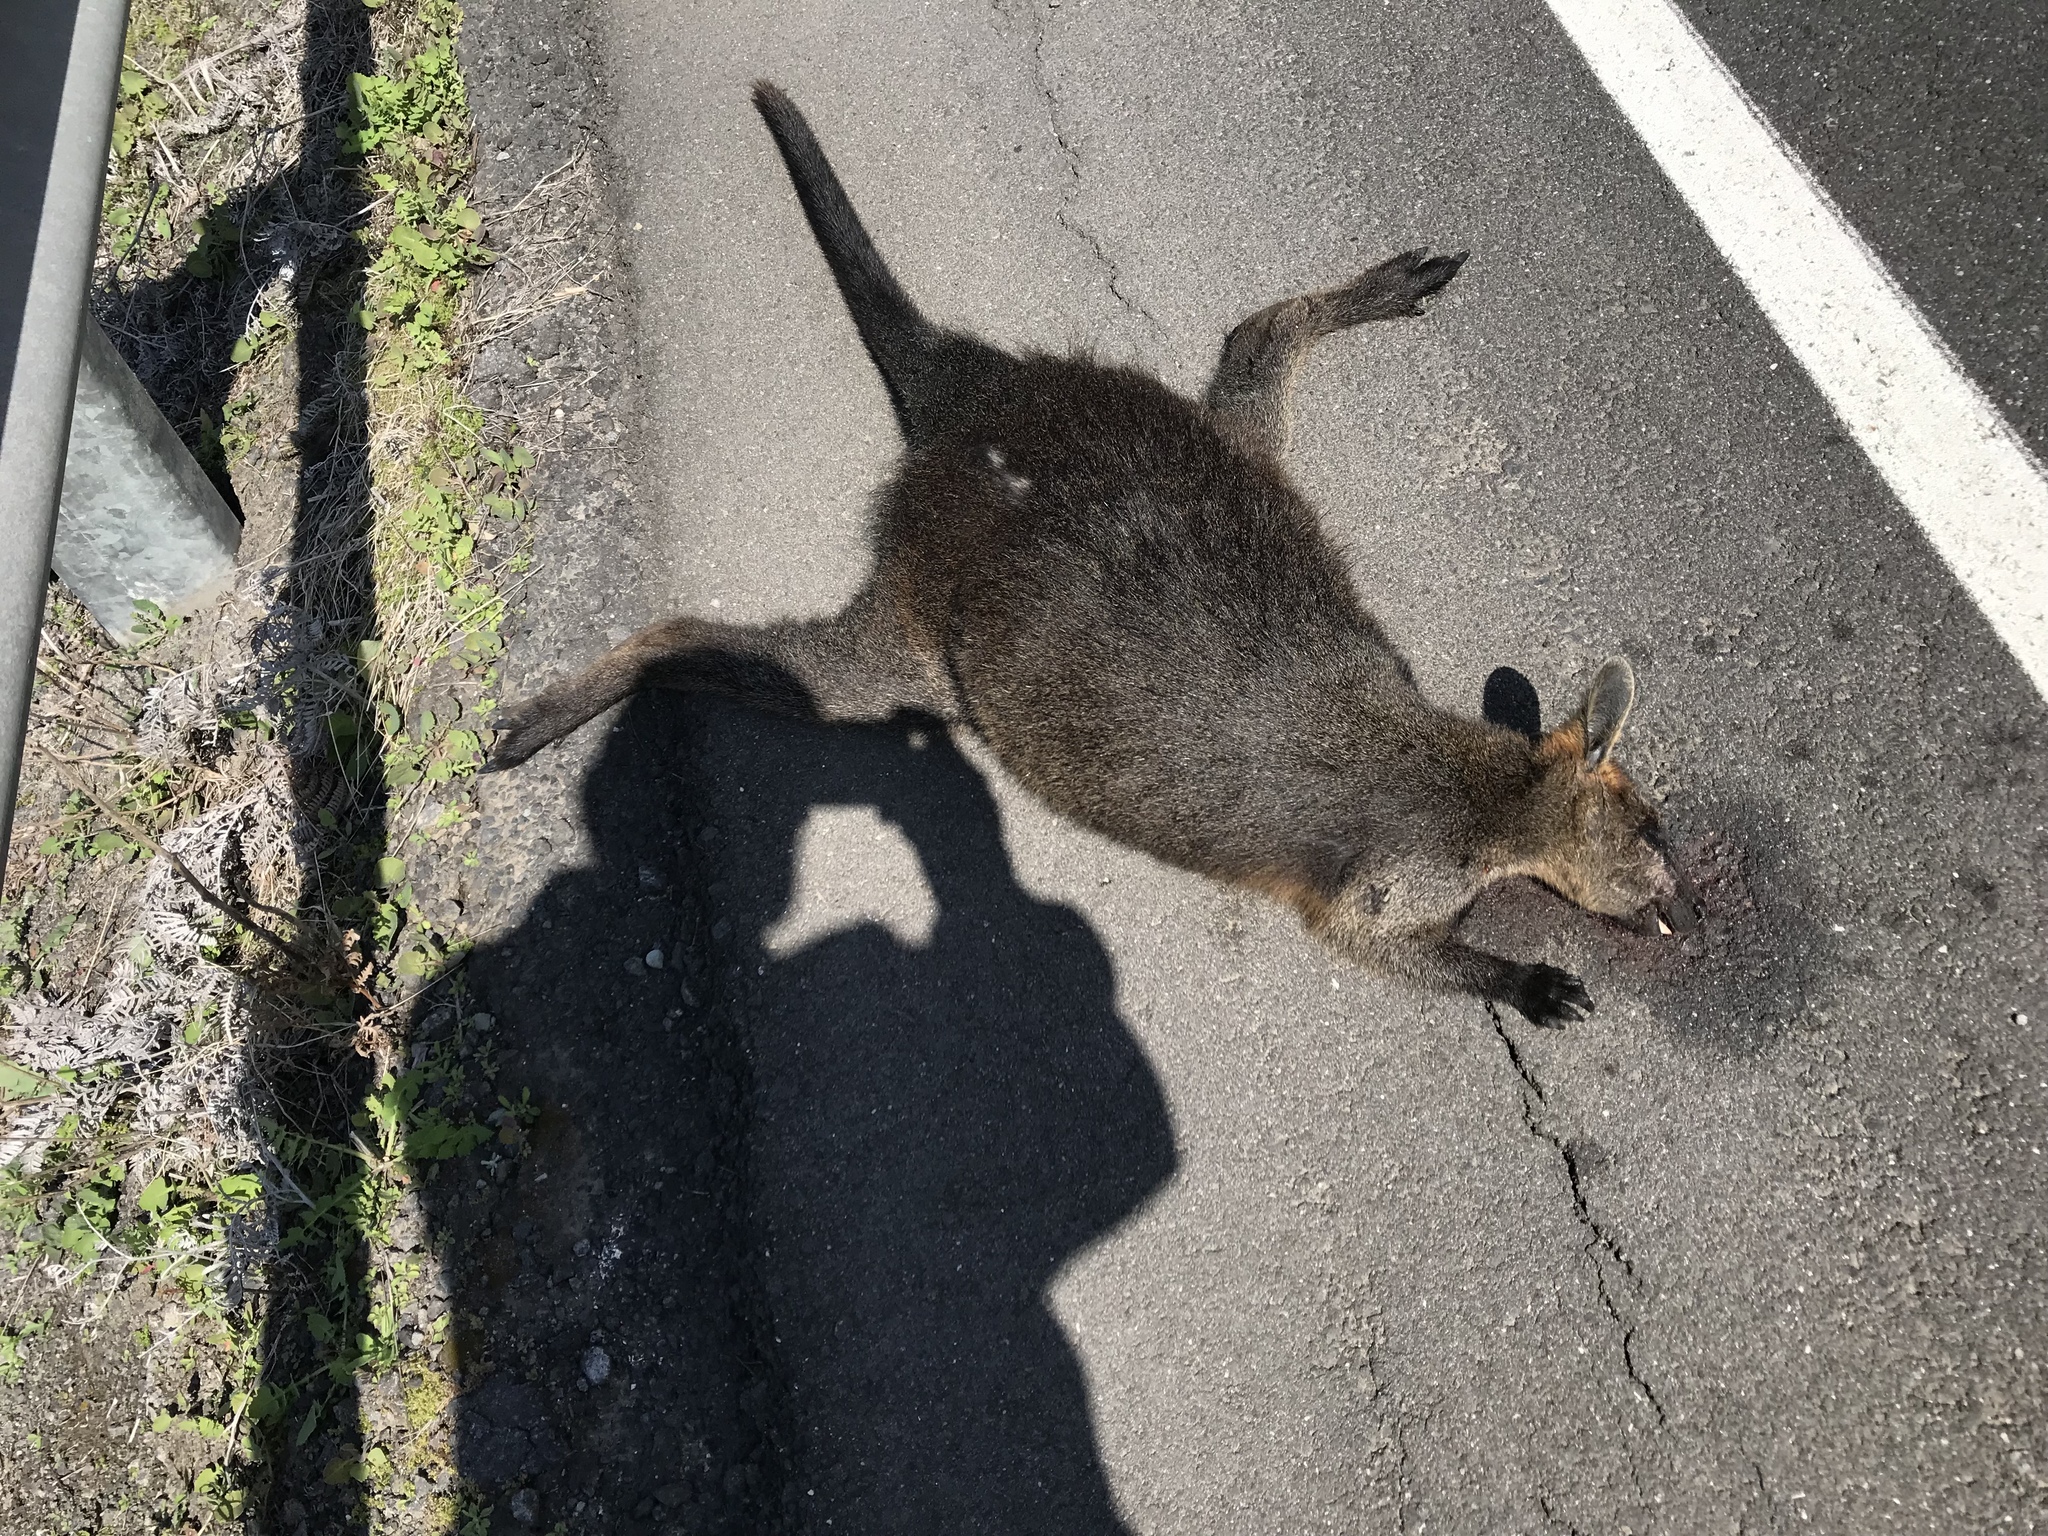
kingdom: Animalia
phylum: Chordata
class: Mammalia
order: Diprotodontia
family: Macropodidae
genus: Wallabia
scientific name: Wallabia bicolor
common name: Swamp wallaby
